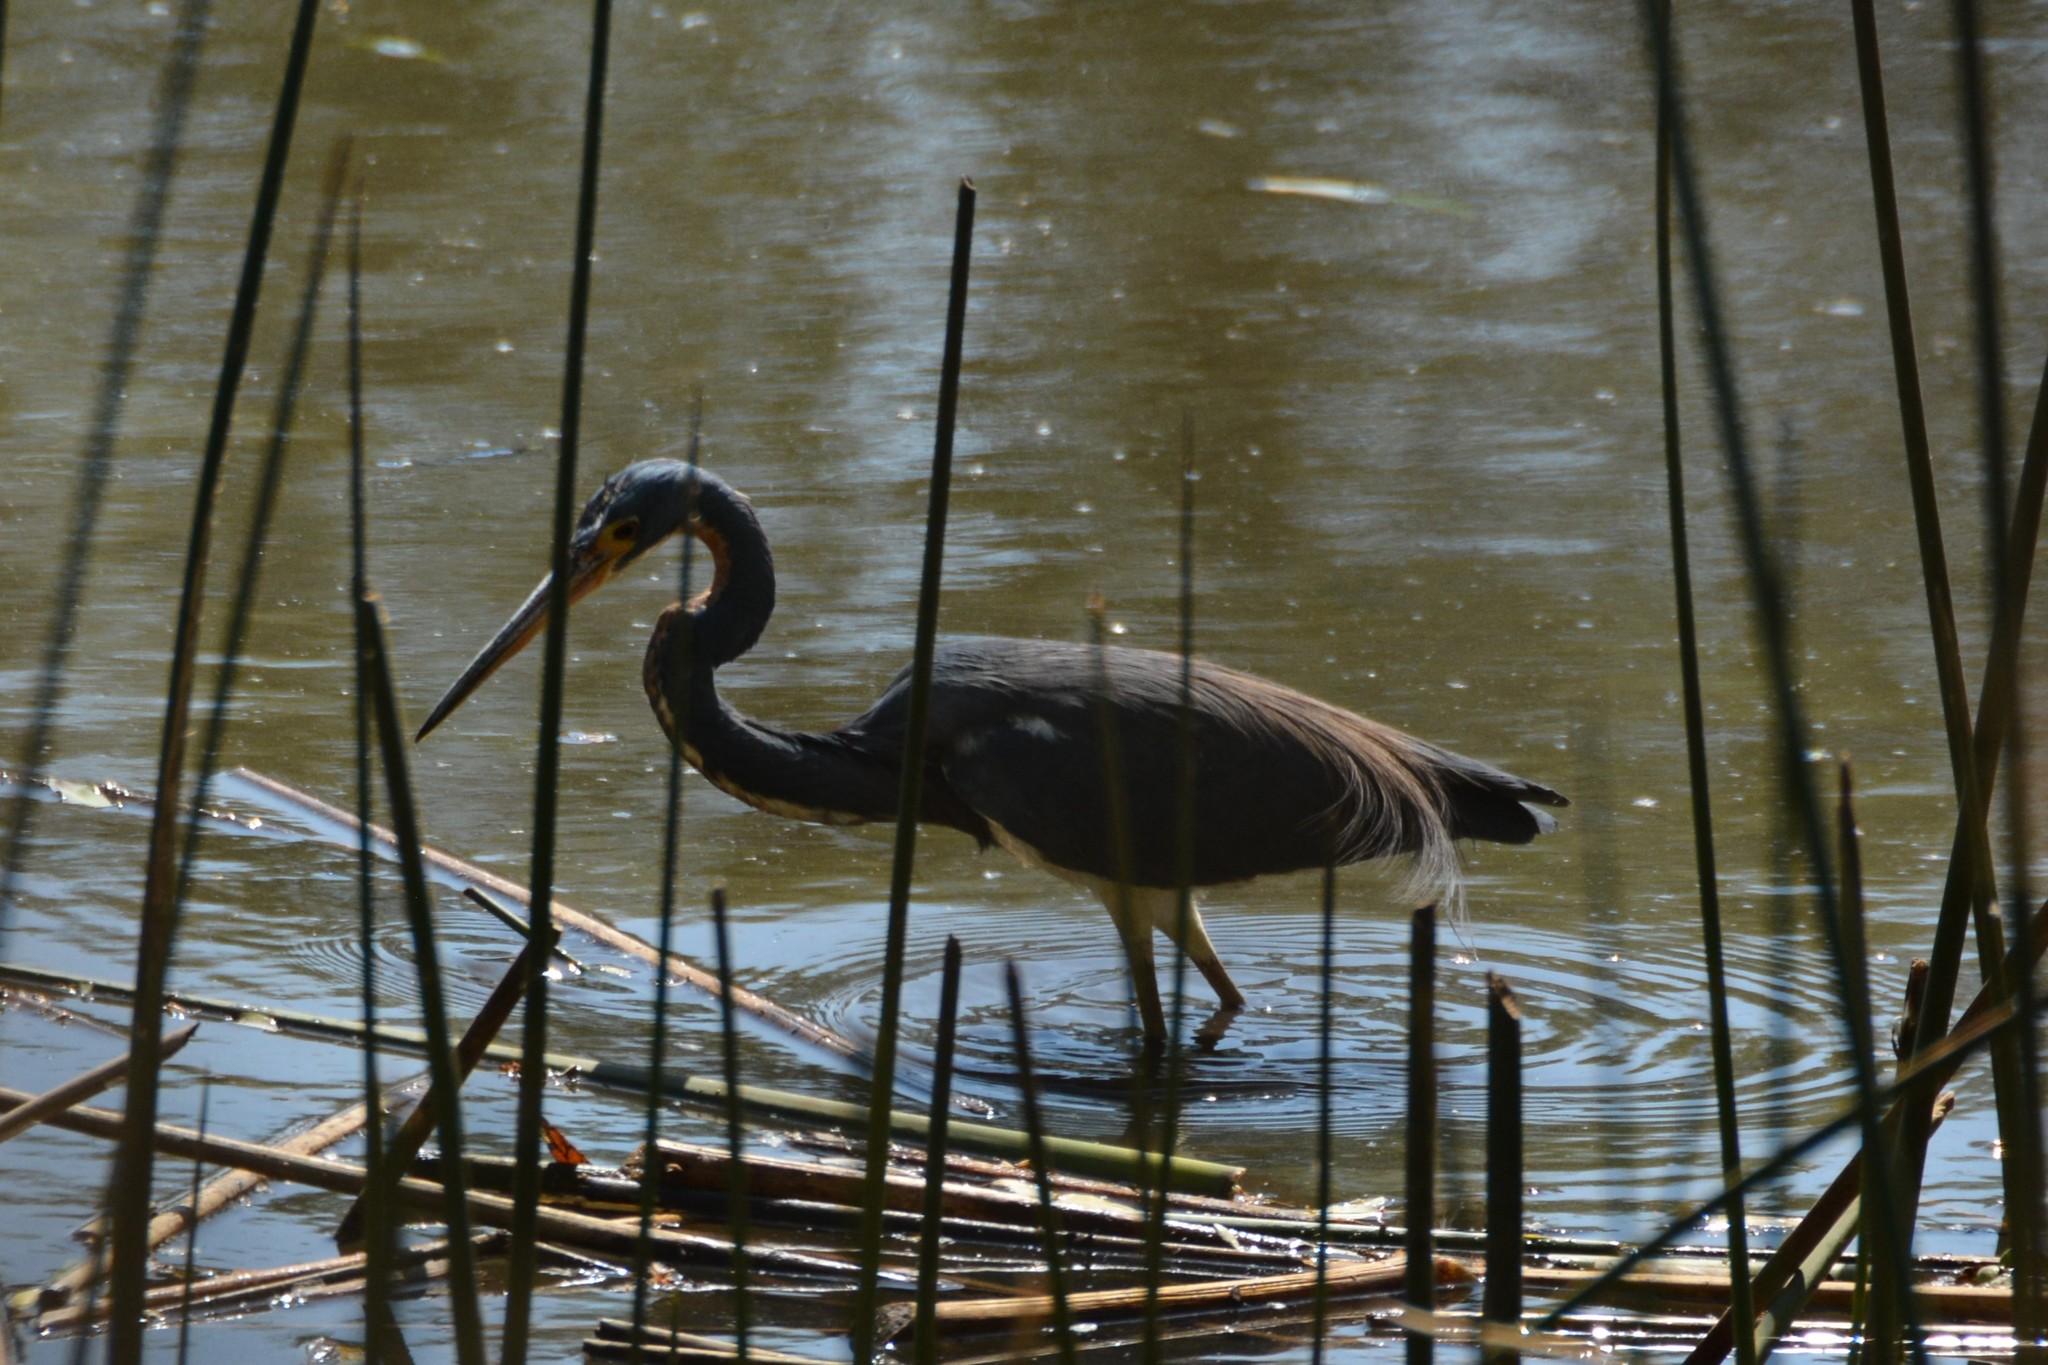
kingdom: Animalia
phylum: Chordata
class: Aves
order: Pelecaniformes
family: Ardeidae
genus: Egretta
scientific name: Egretta tricolor
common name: Tricolored heron
